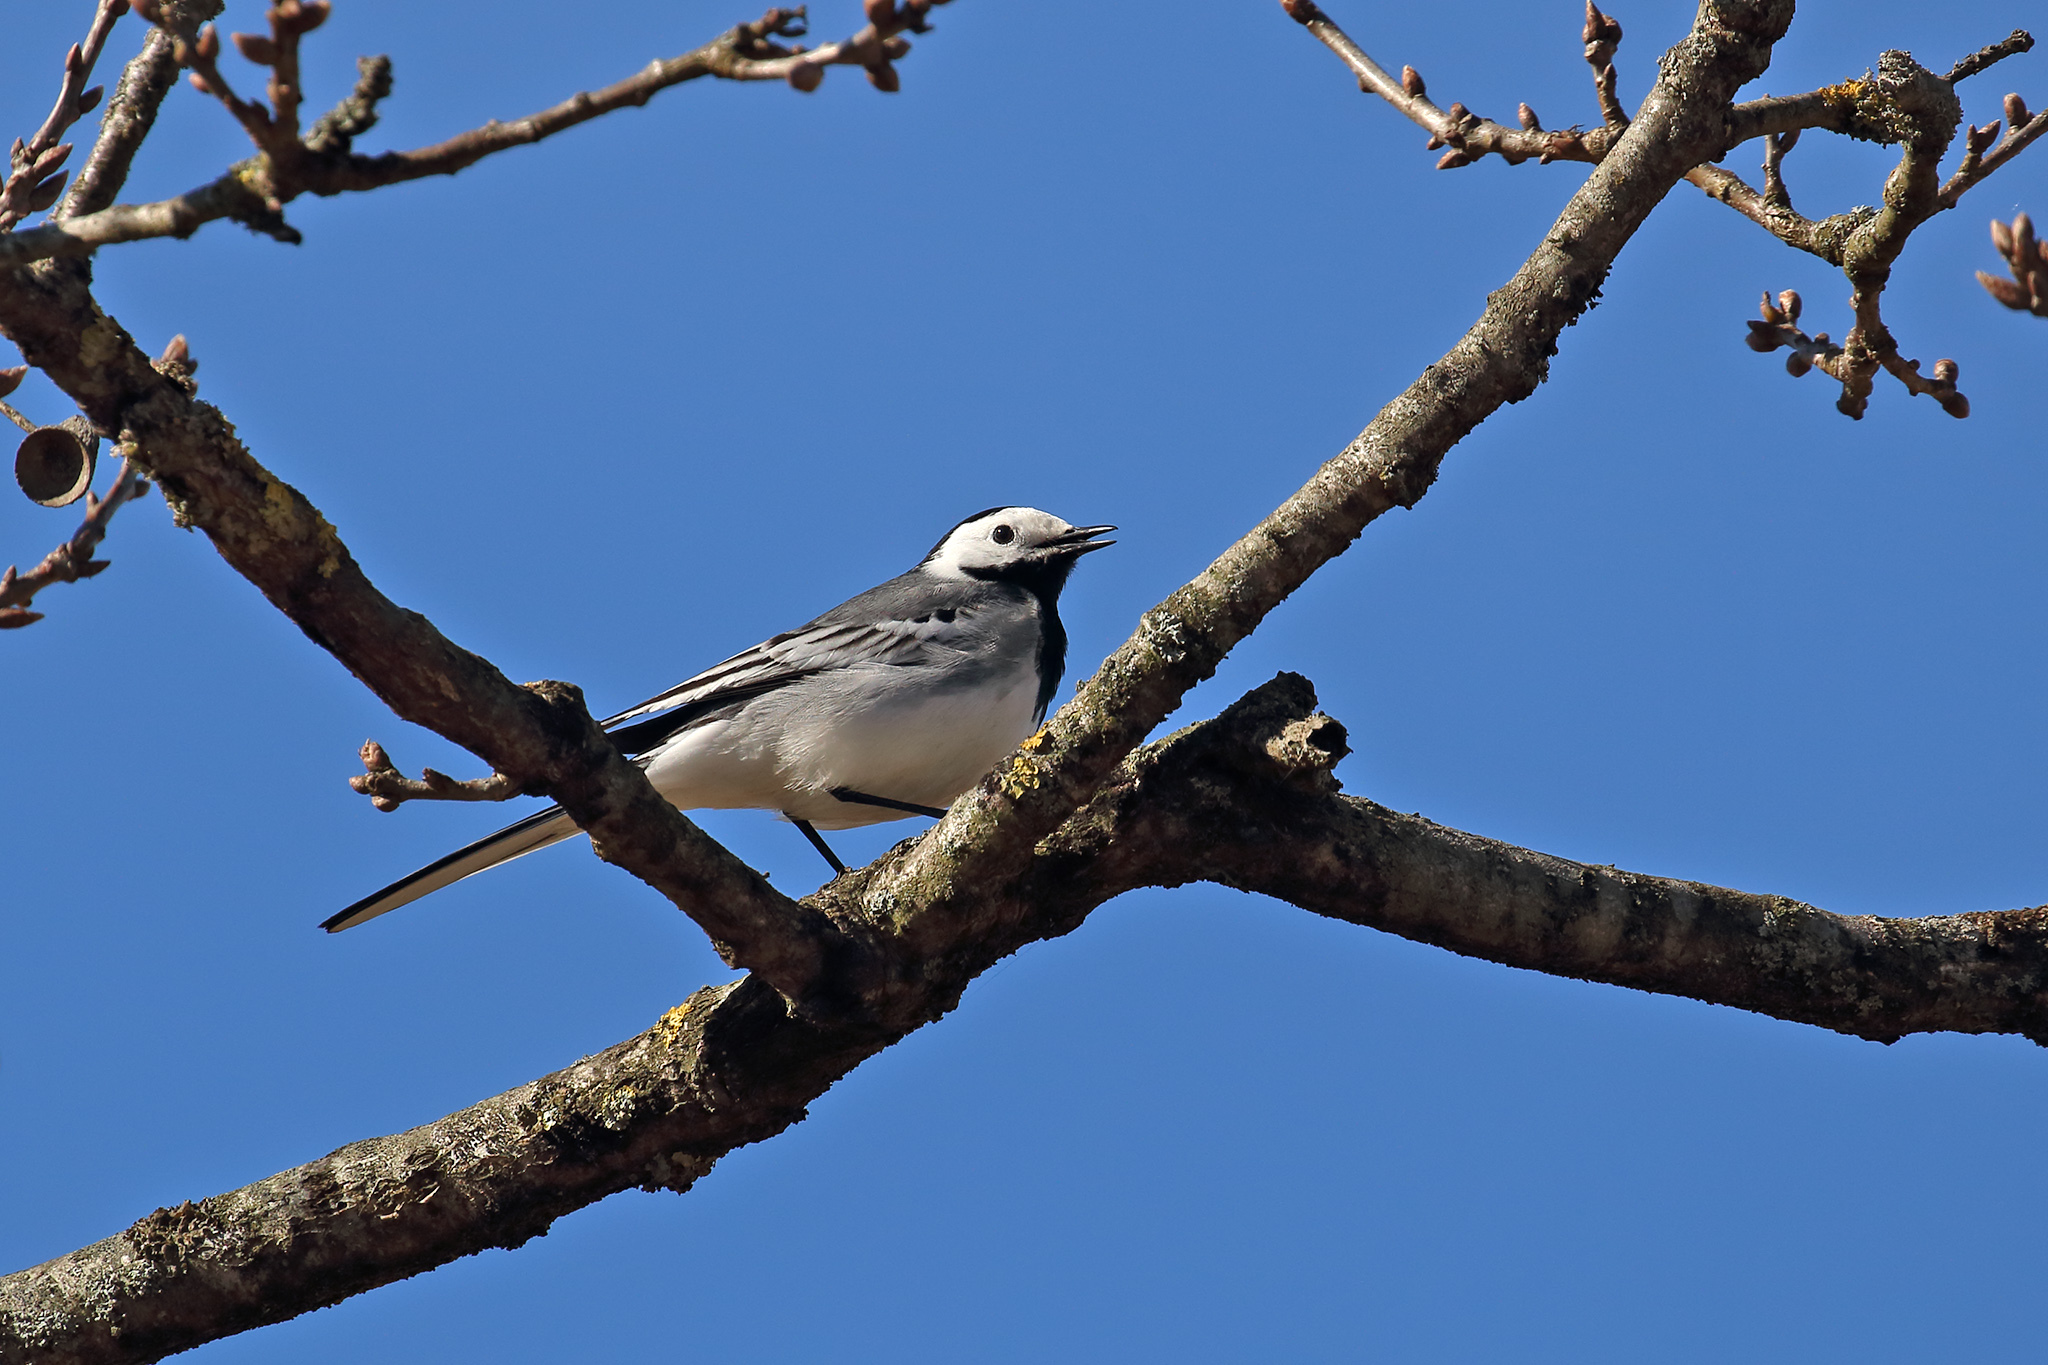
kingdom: Animalia
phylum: Chordata
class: Aves
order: Passeriformes
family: Motacillidae
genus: Motacilla
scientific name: Motacilla alba
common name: White wagtail
